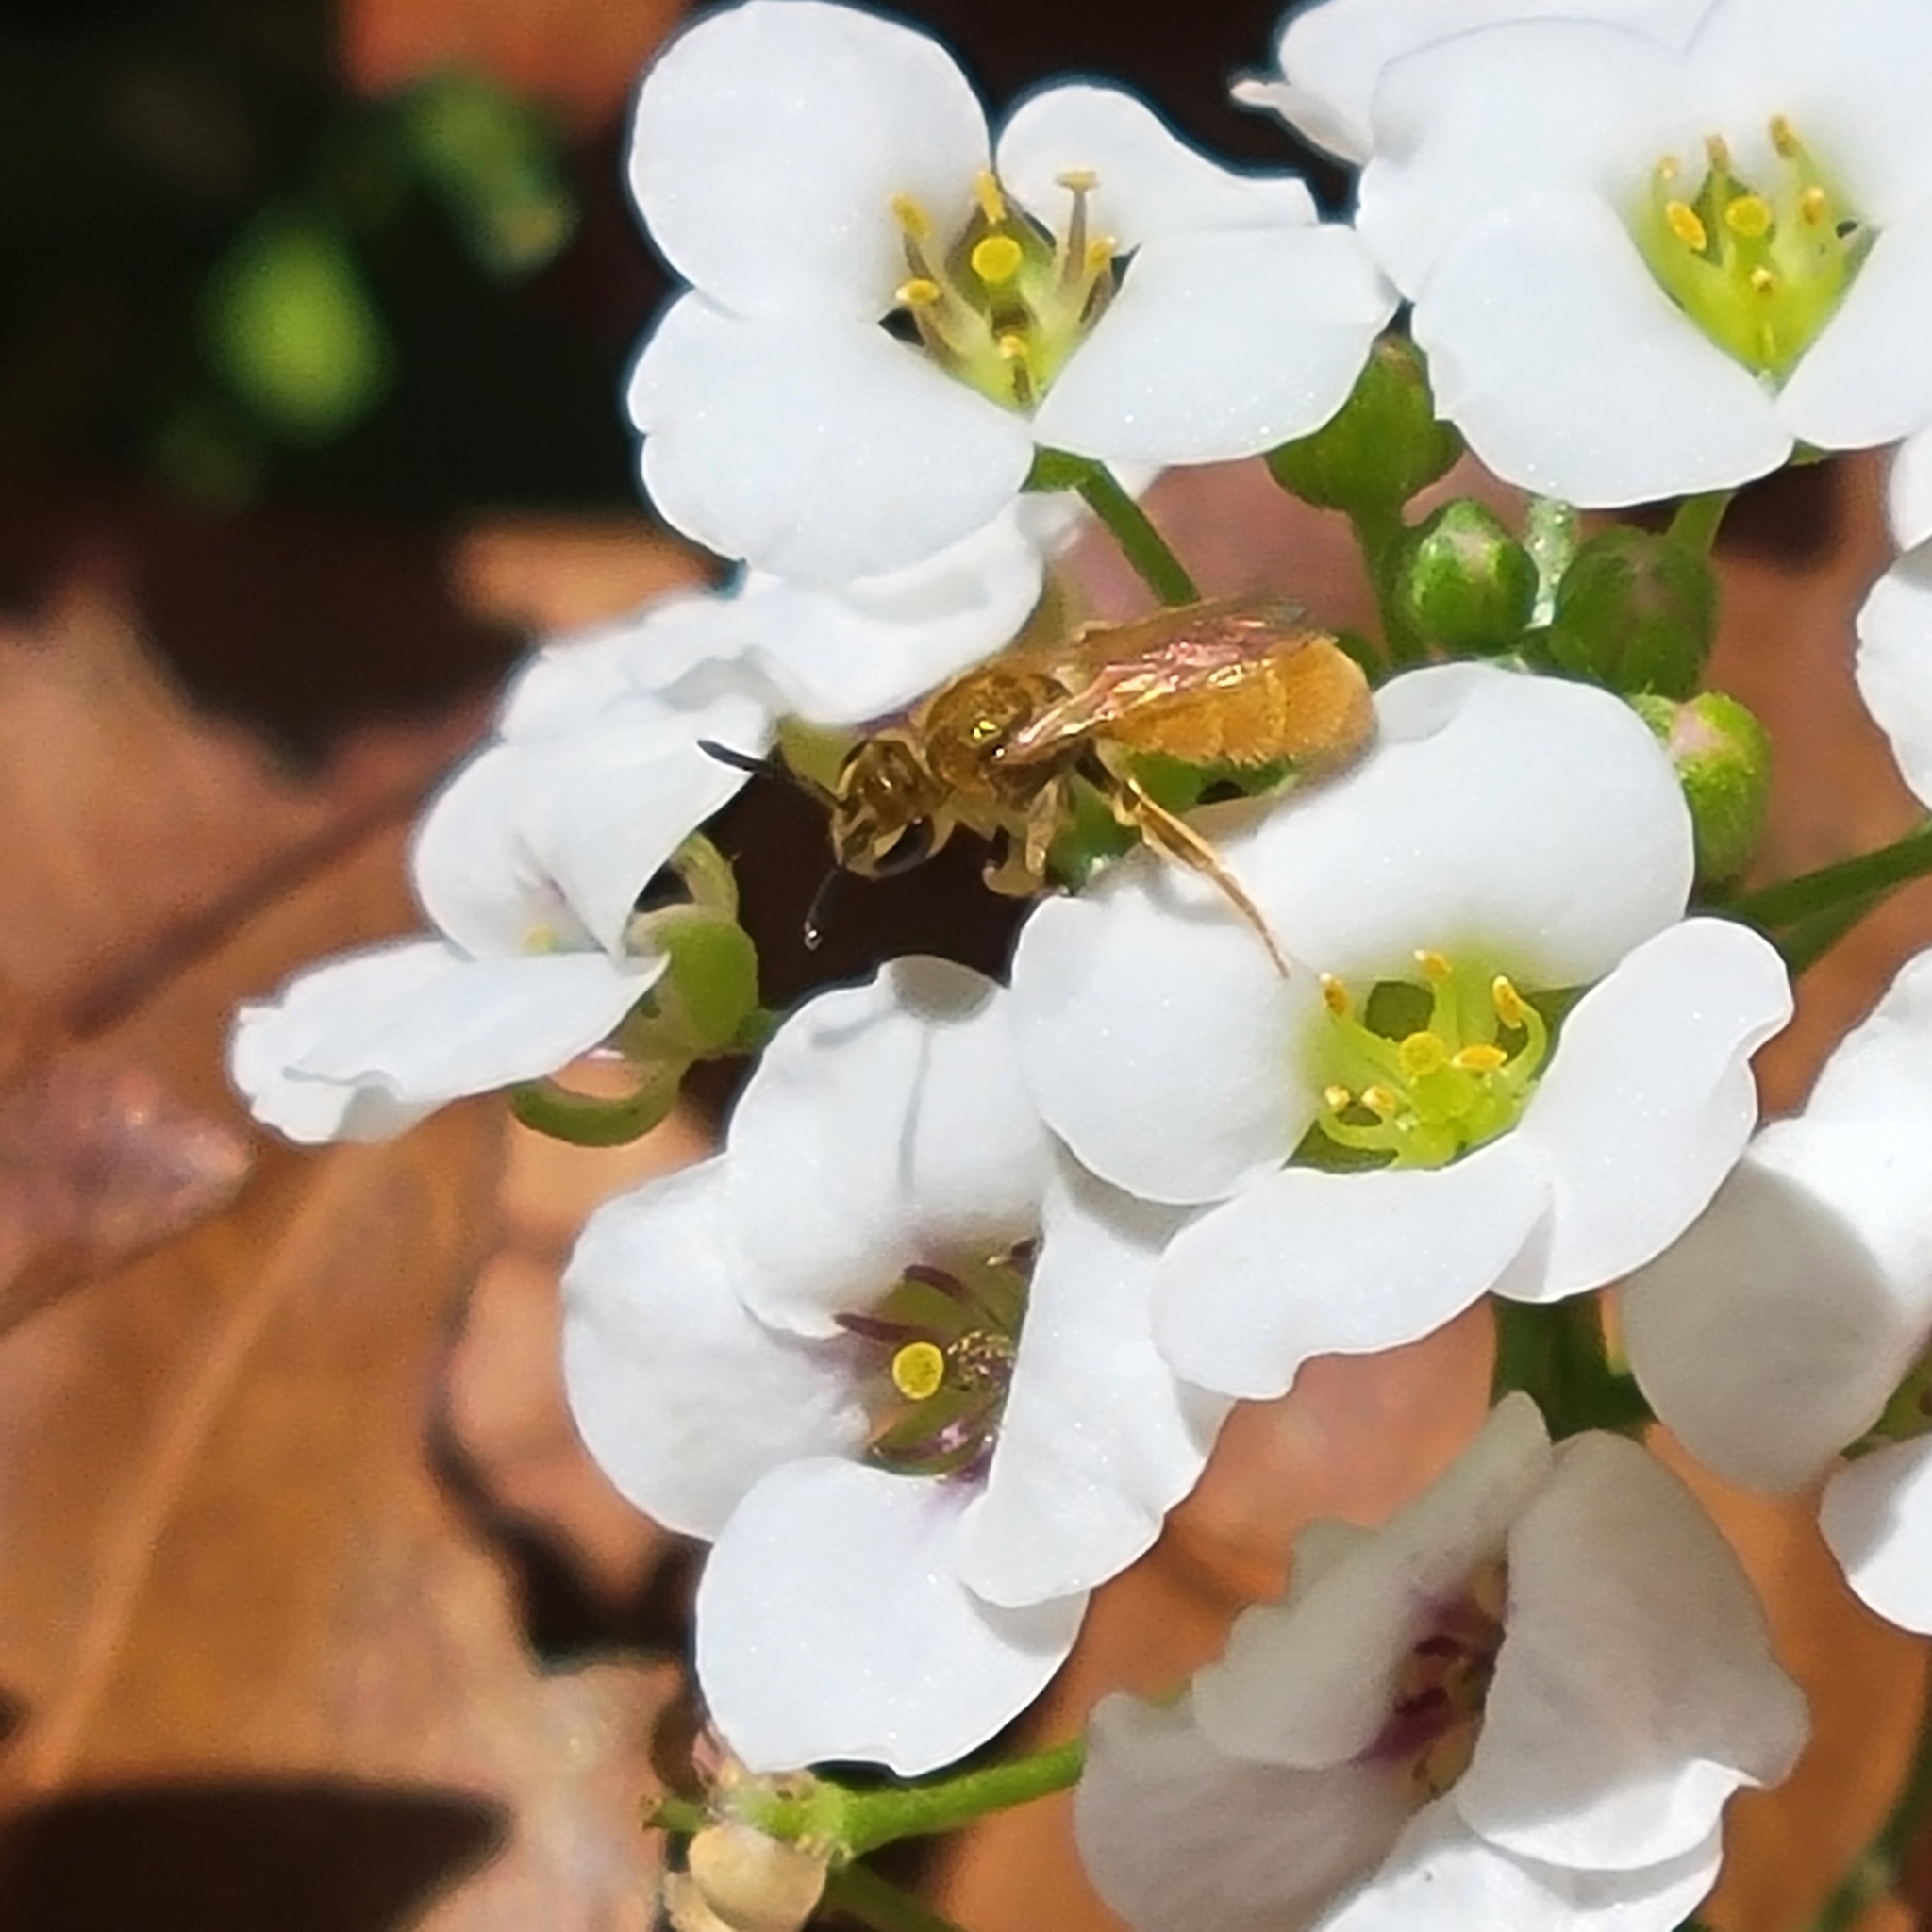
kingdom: Animalia
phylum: Arthropoda
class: Insecta
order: Hymenoptera
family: Halictidae
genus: Lasioglossum
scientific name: Lasioglossum vierecki
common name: Viereck's sweat bee
